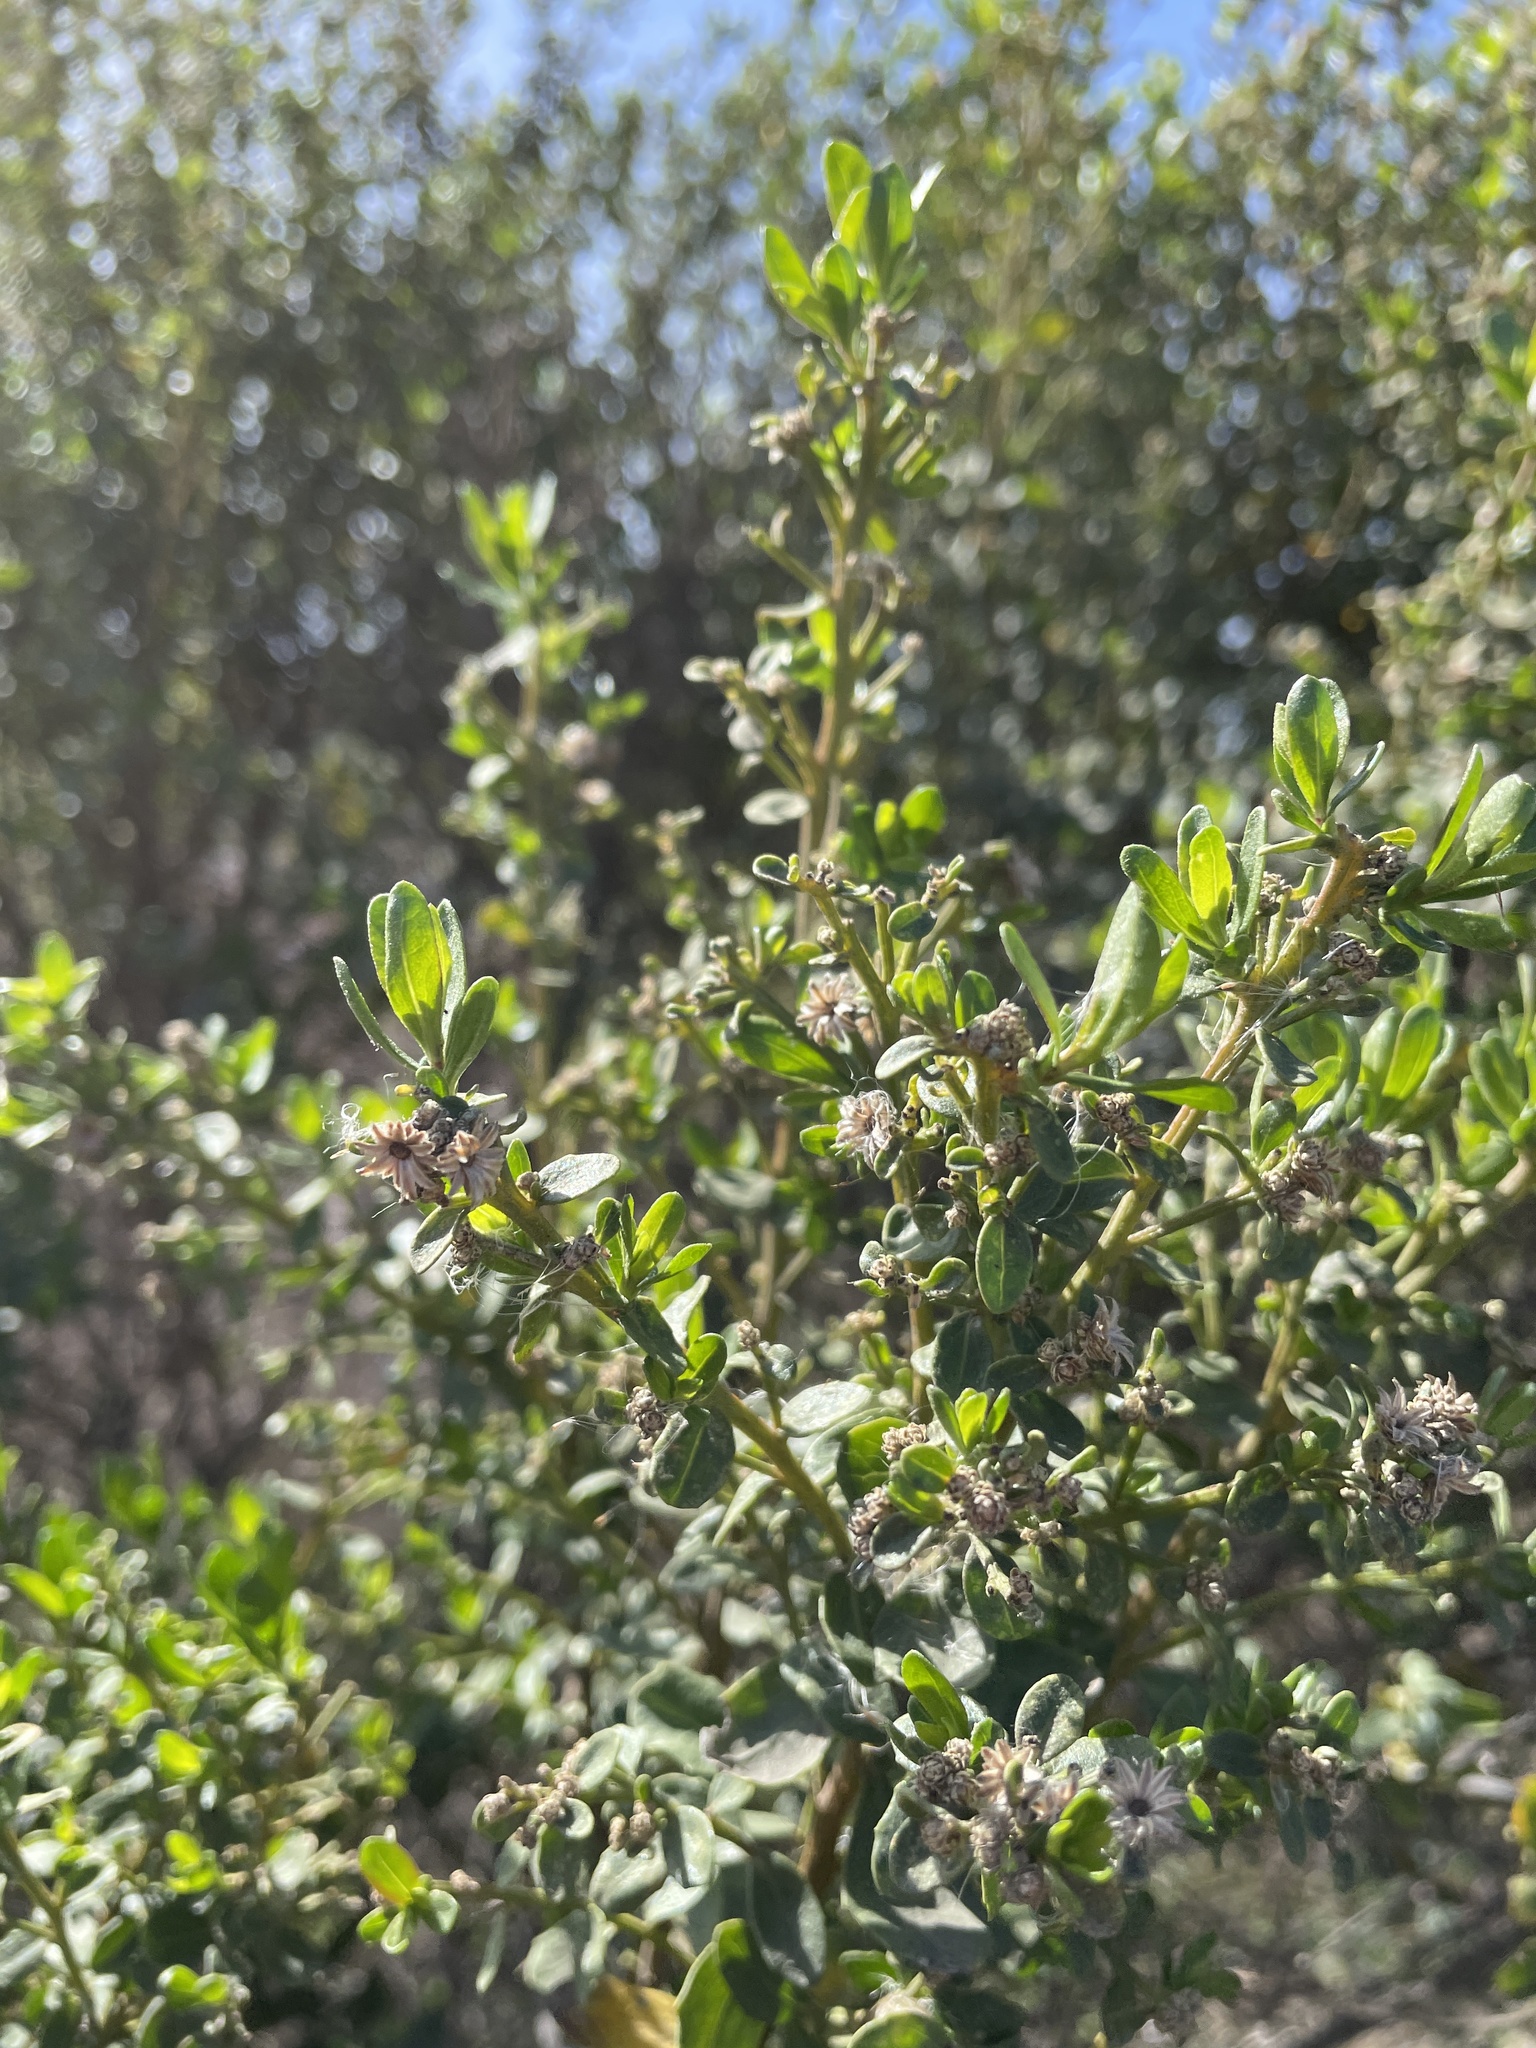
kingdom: Plantae
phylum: Tracheophyta
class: Magnoliopsida
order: Asterales
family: Asteraceae
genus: Baccharis
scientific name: Baccharis pilularis
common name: Coyotebrush
